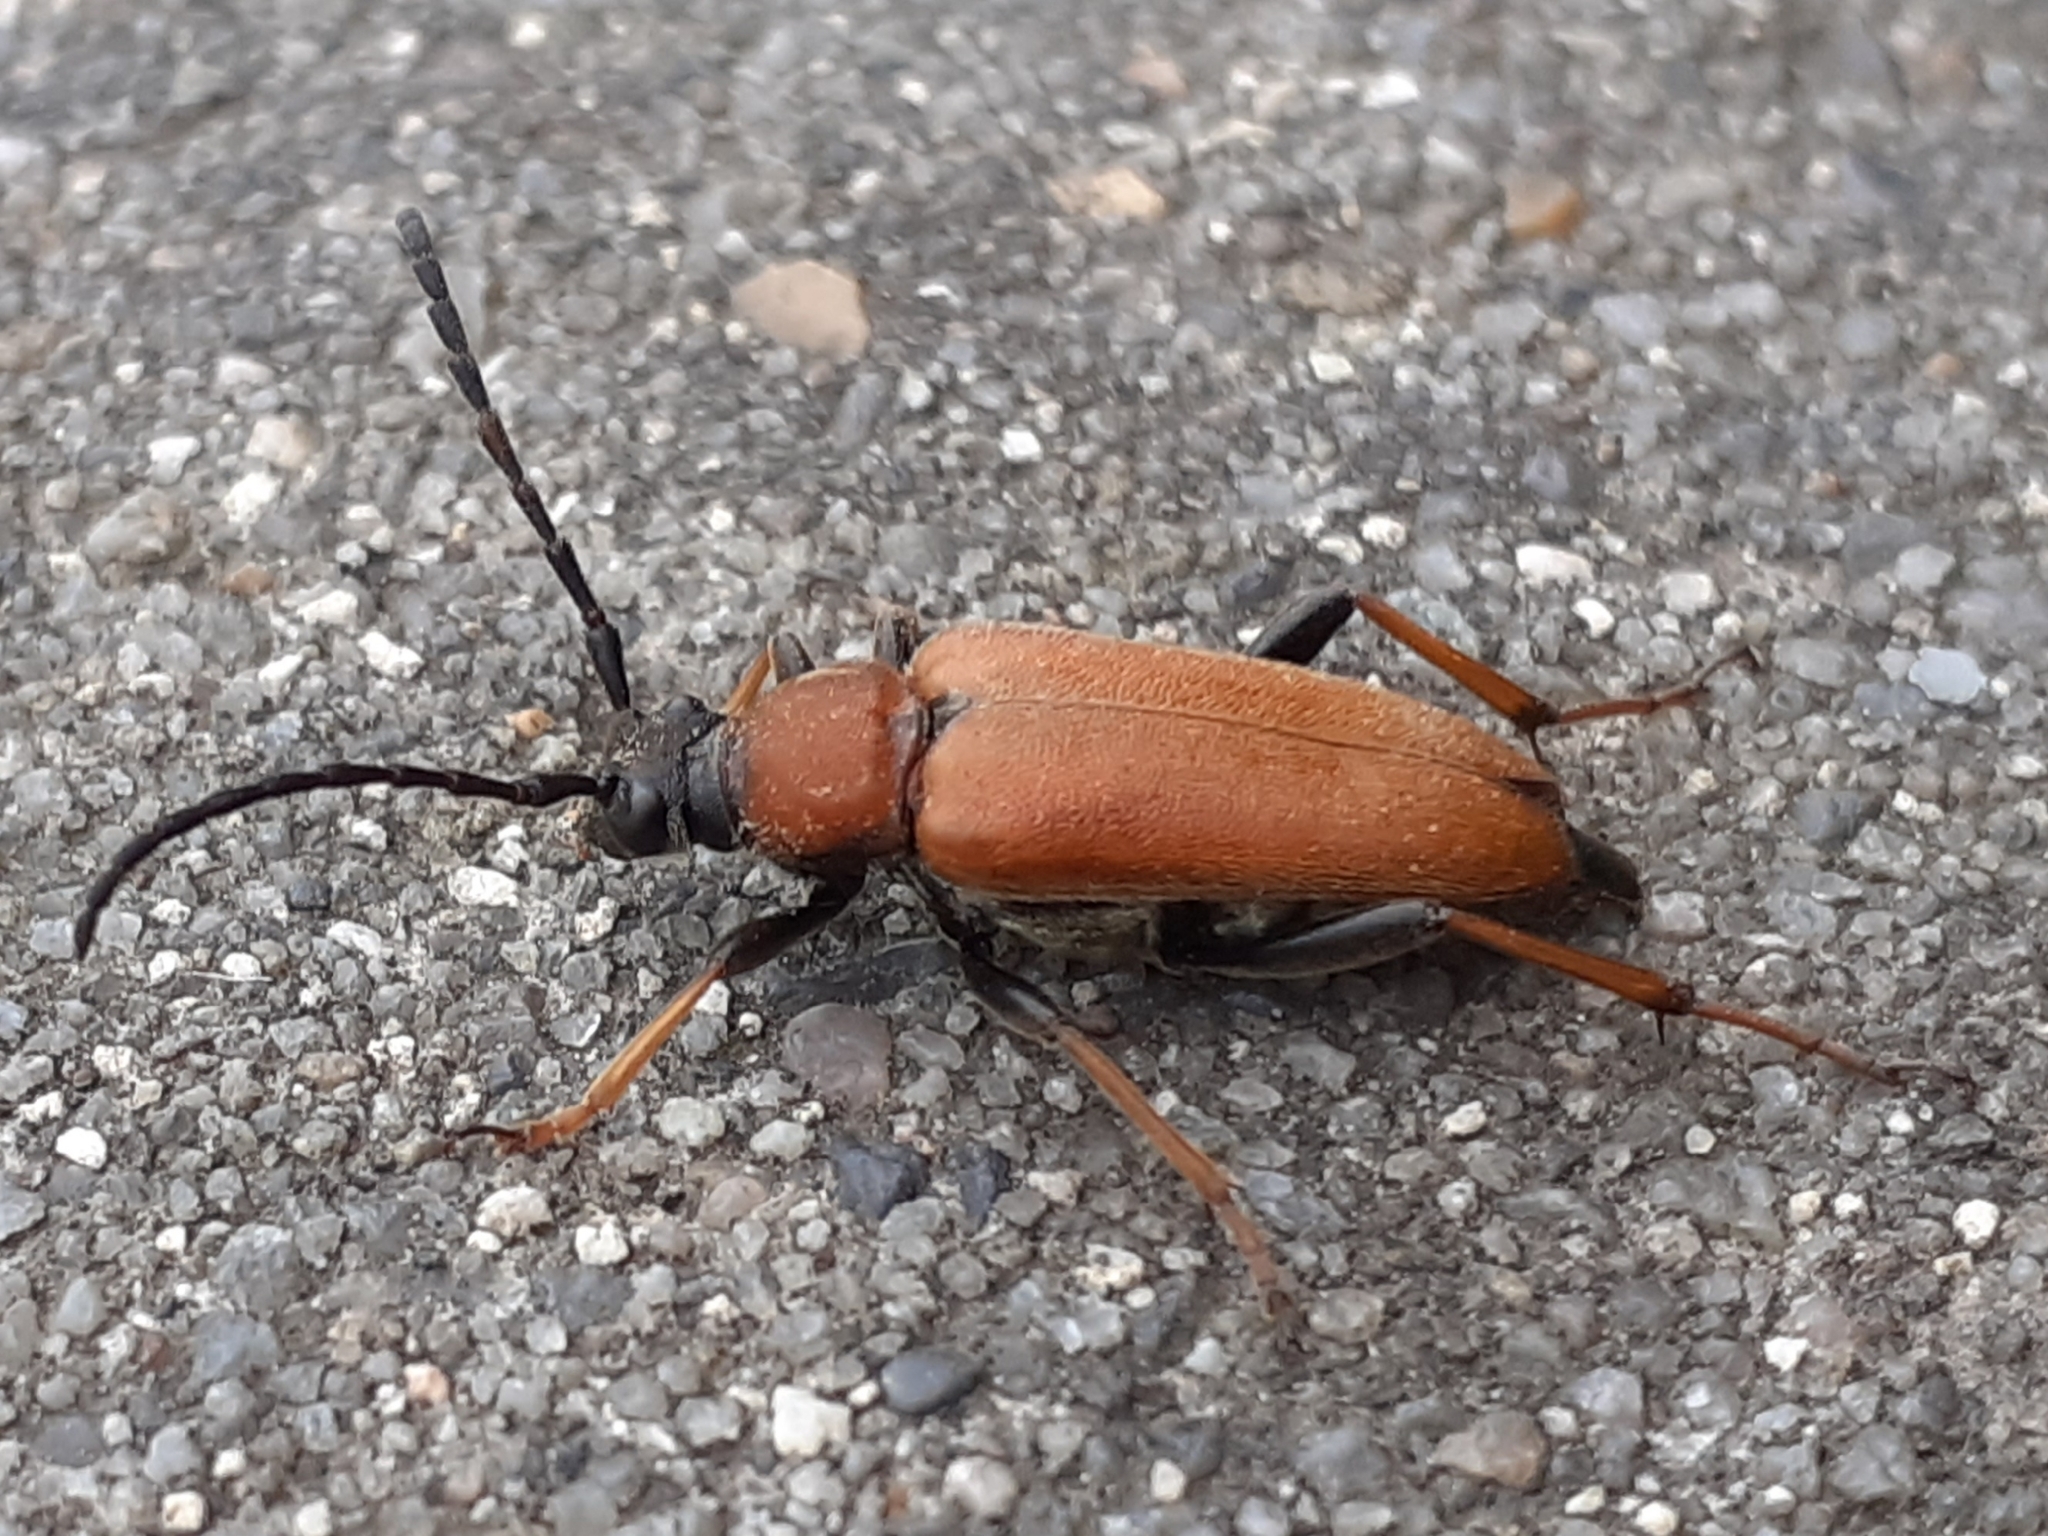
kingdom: Animalia
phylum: Arthropoda
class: Insecta
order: Coleoptera
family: Cerambycidae
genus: Stictoleptura
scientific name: Stictoleptura rubra
